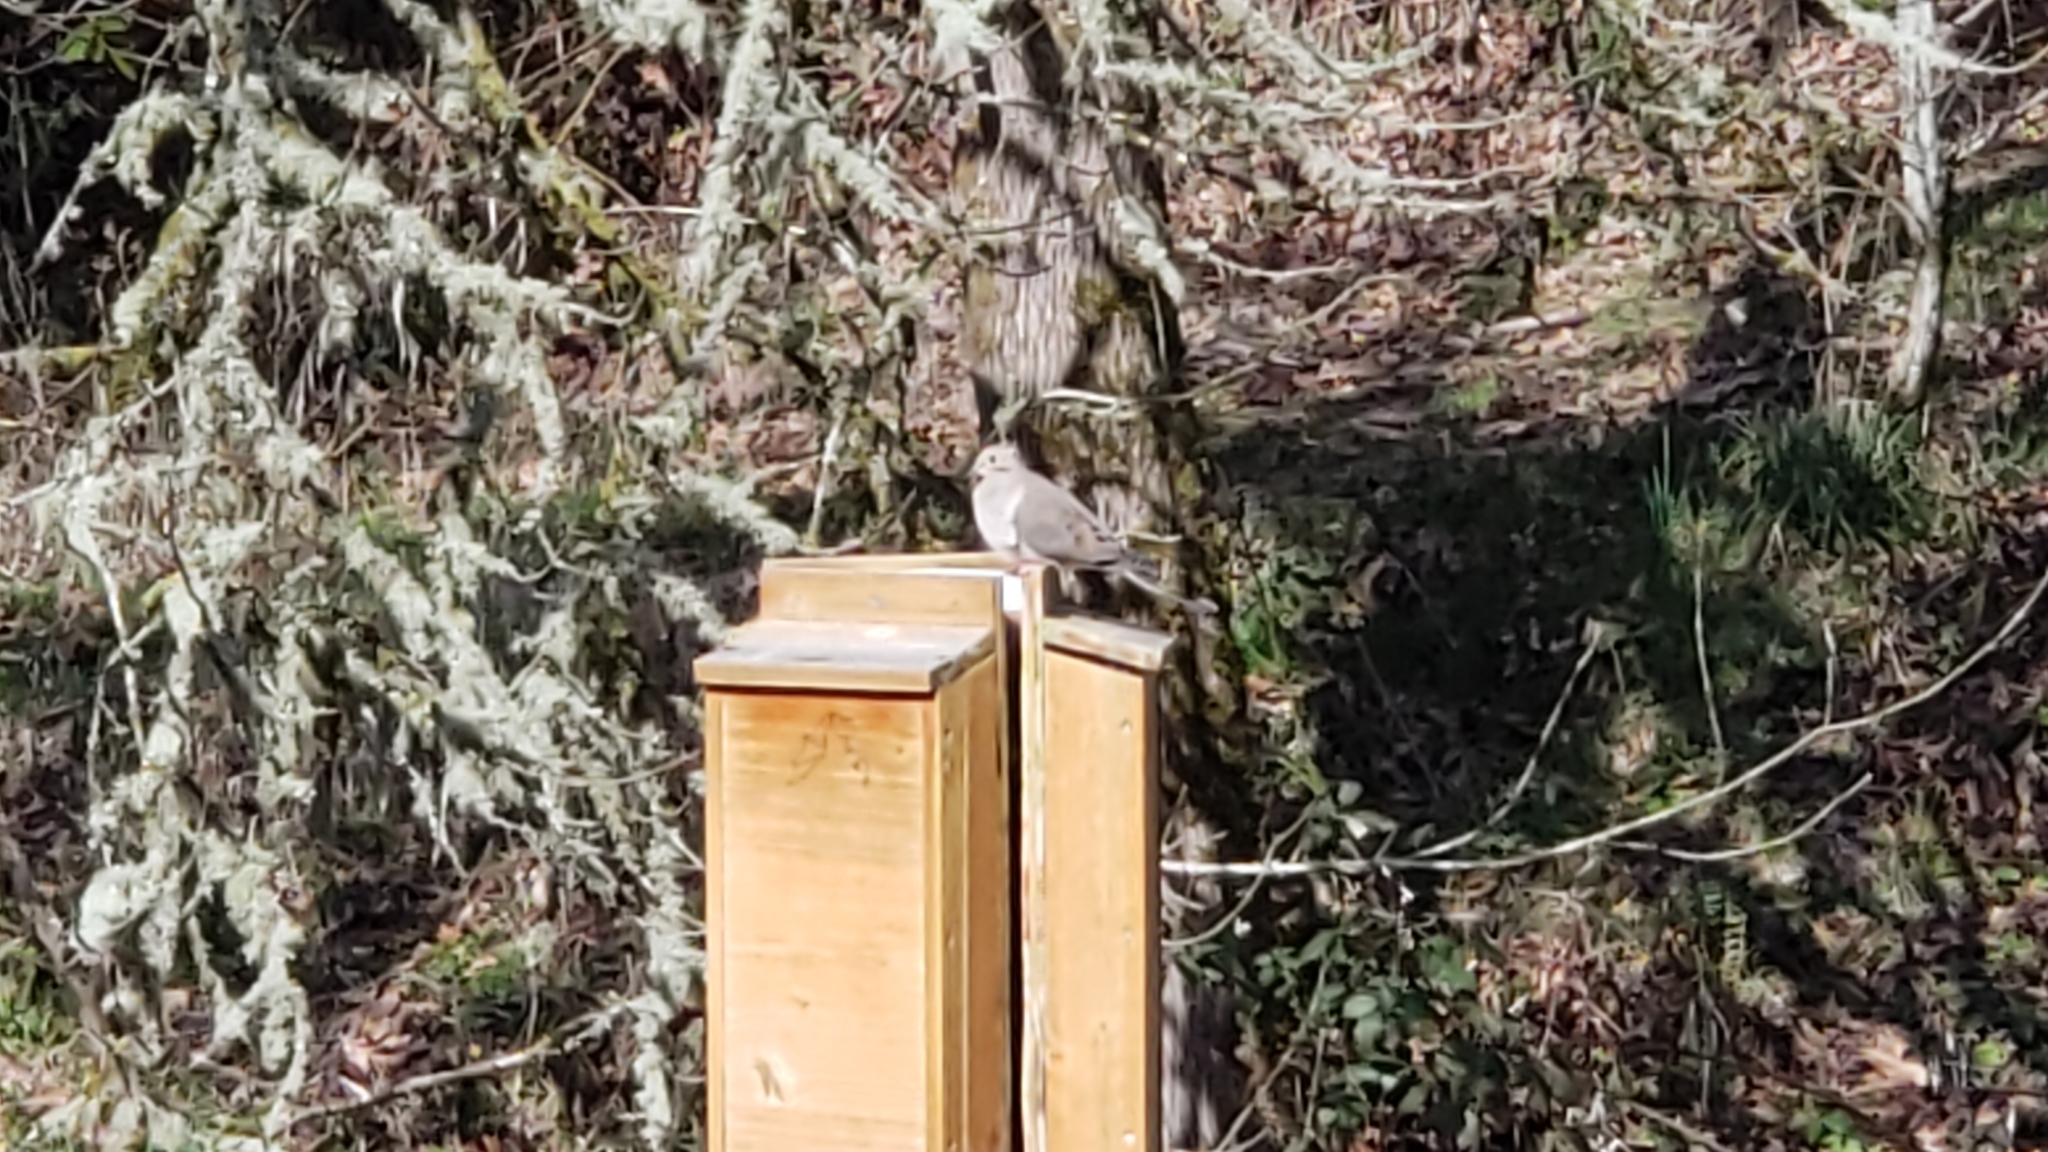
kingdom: Animalia
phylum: Chordata
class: Aves
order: Columbiformes
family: Columbidae
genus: Zenaida
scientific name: Zenaida macroura
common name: Mourning dove
